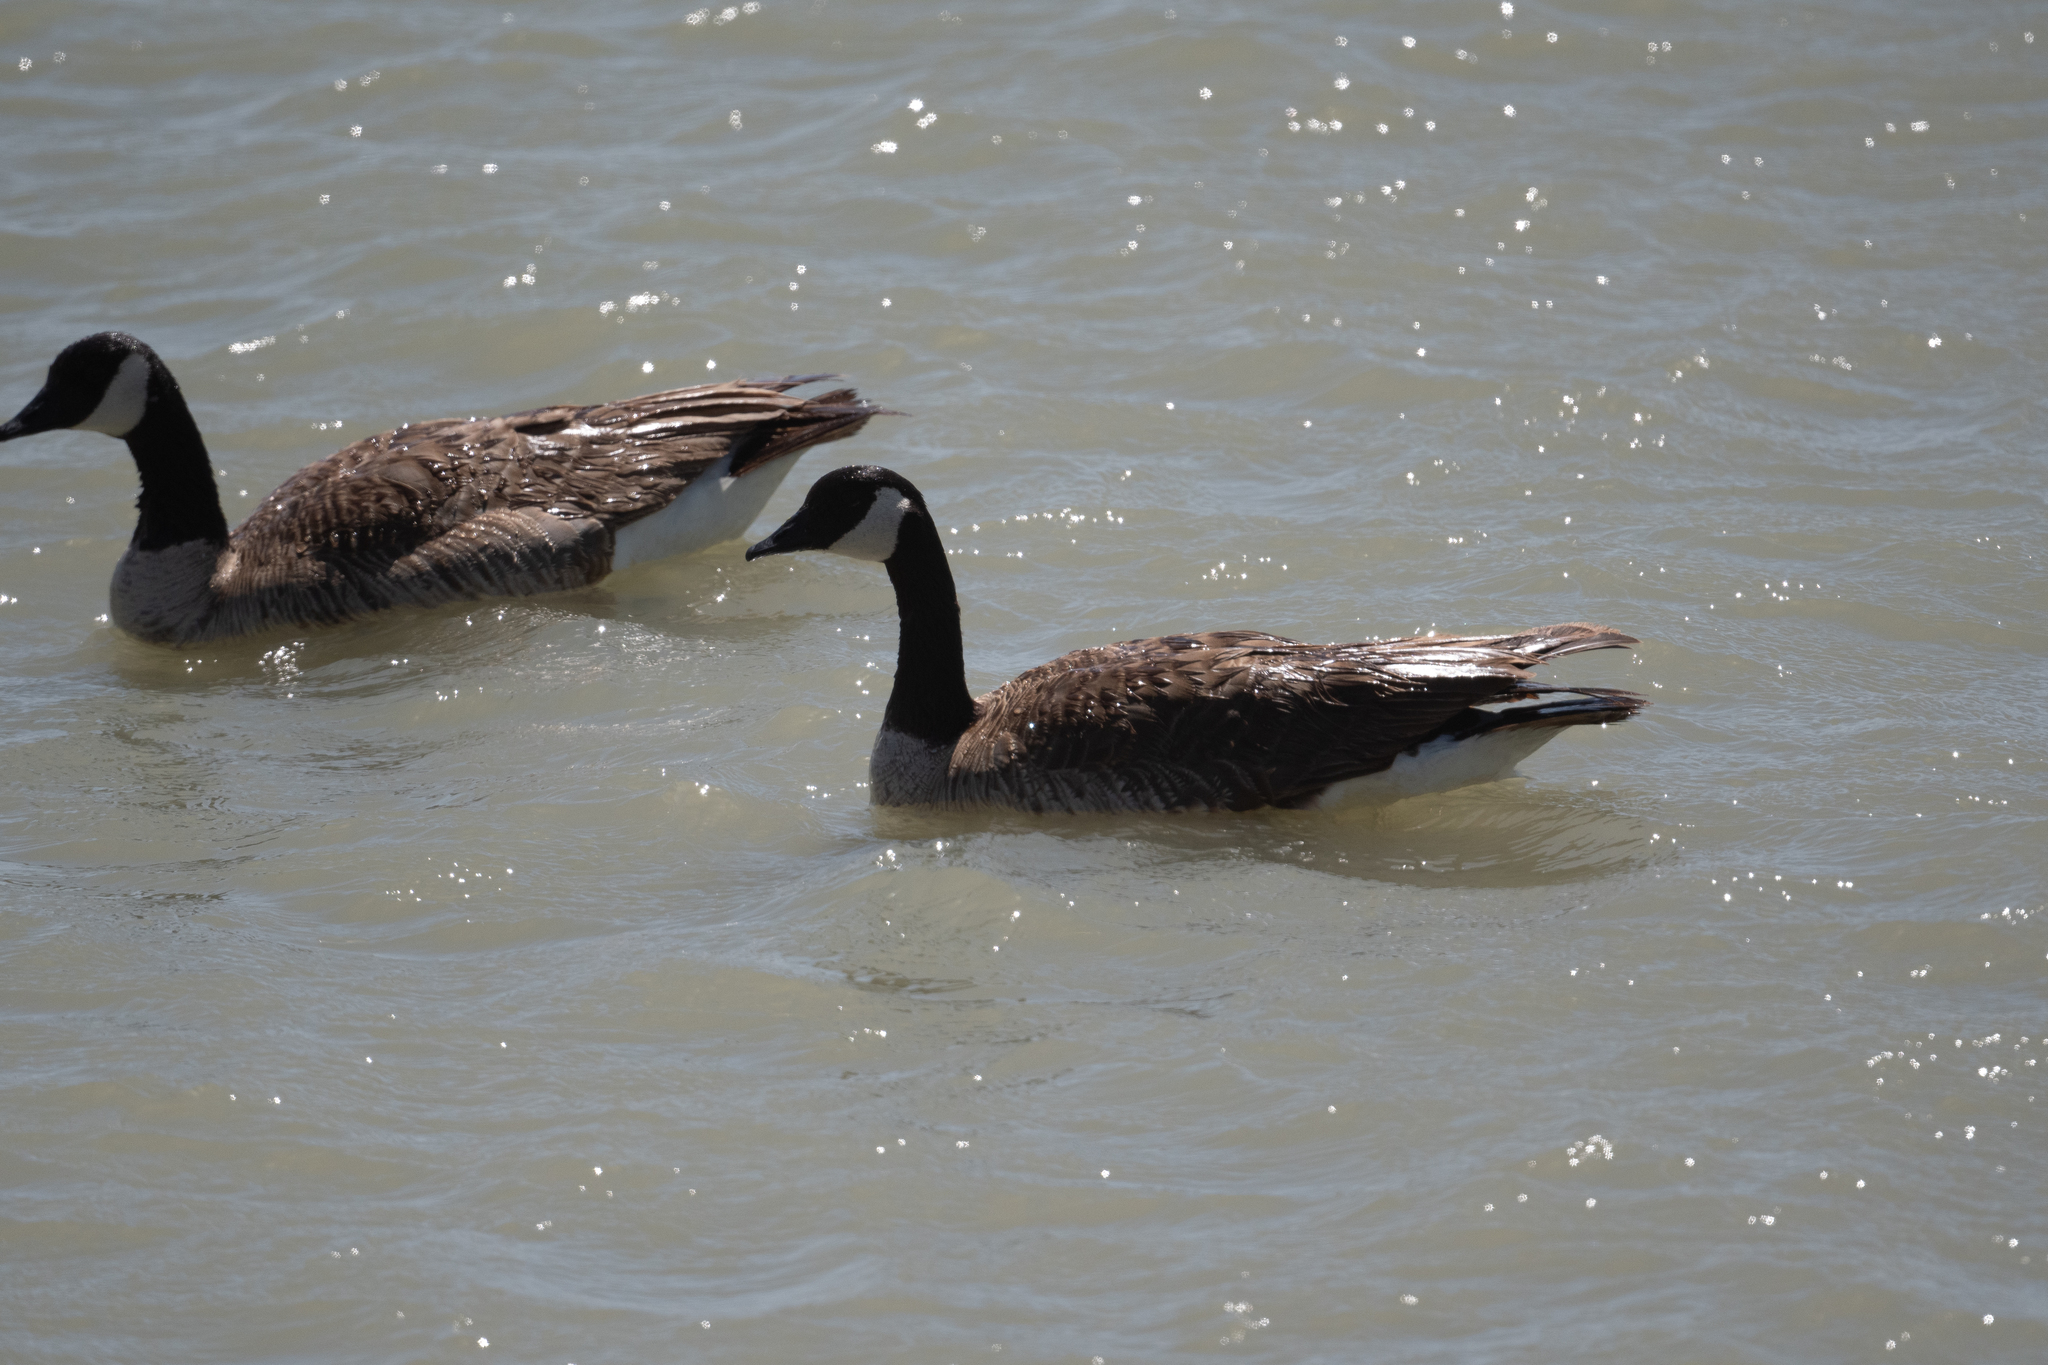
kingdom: Animalia
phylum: Chordata
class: Aves
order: Anseriformes
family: Anatidae
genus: Branta
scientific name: Branta canadensis
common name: Canada goose
